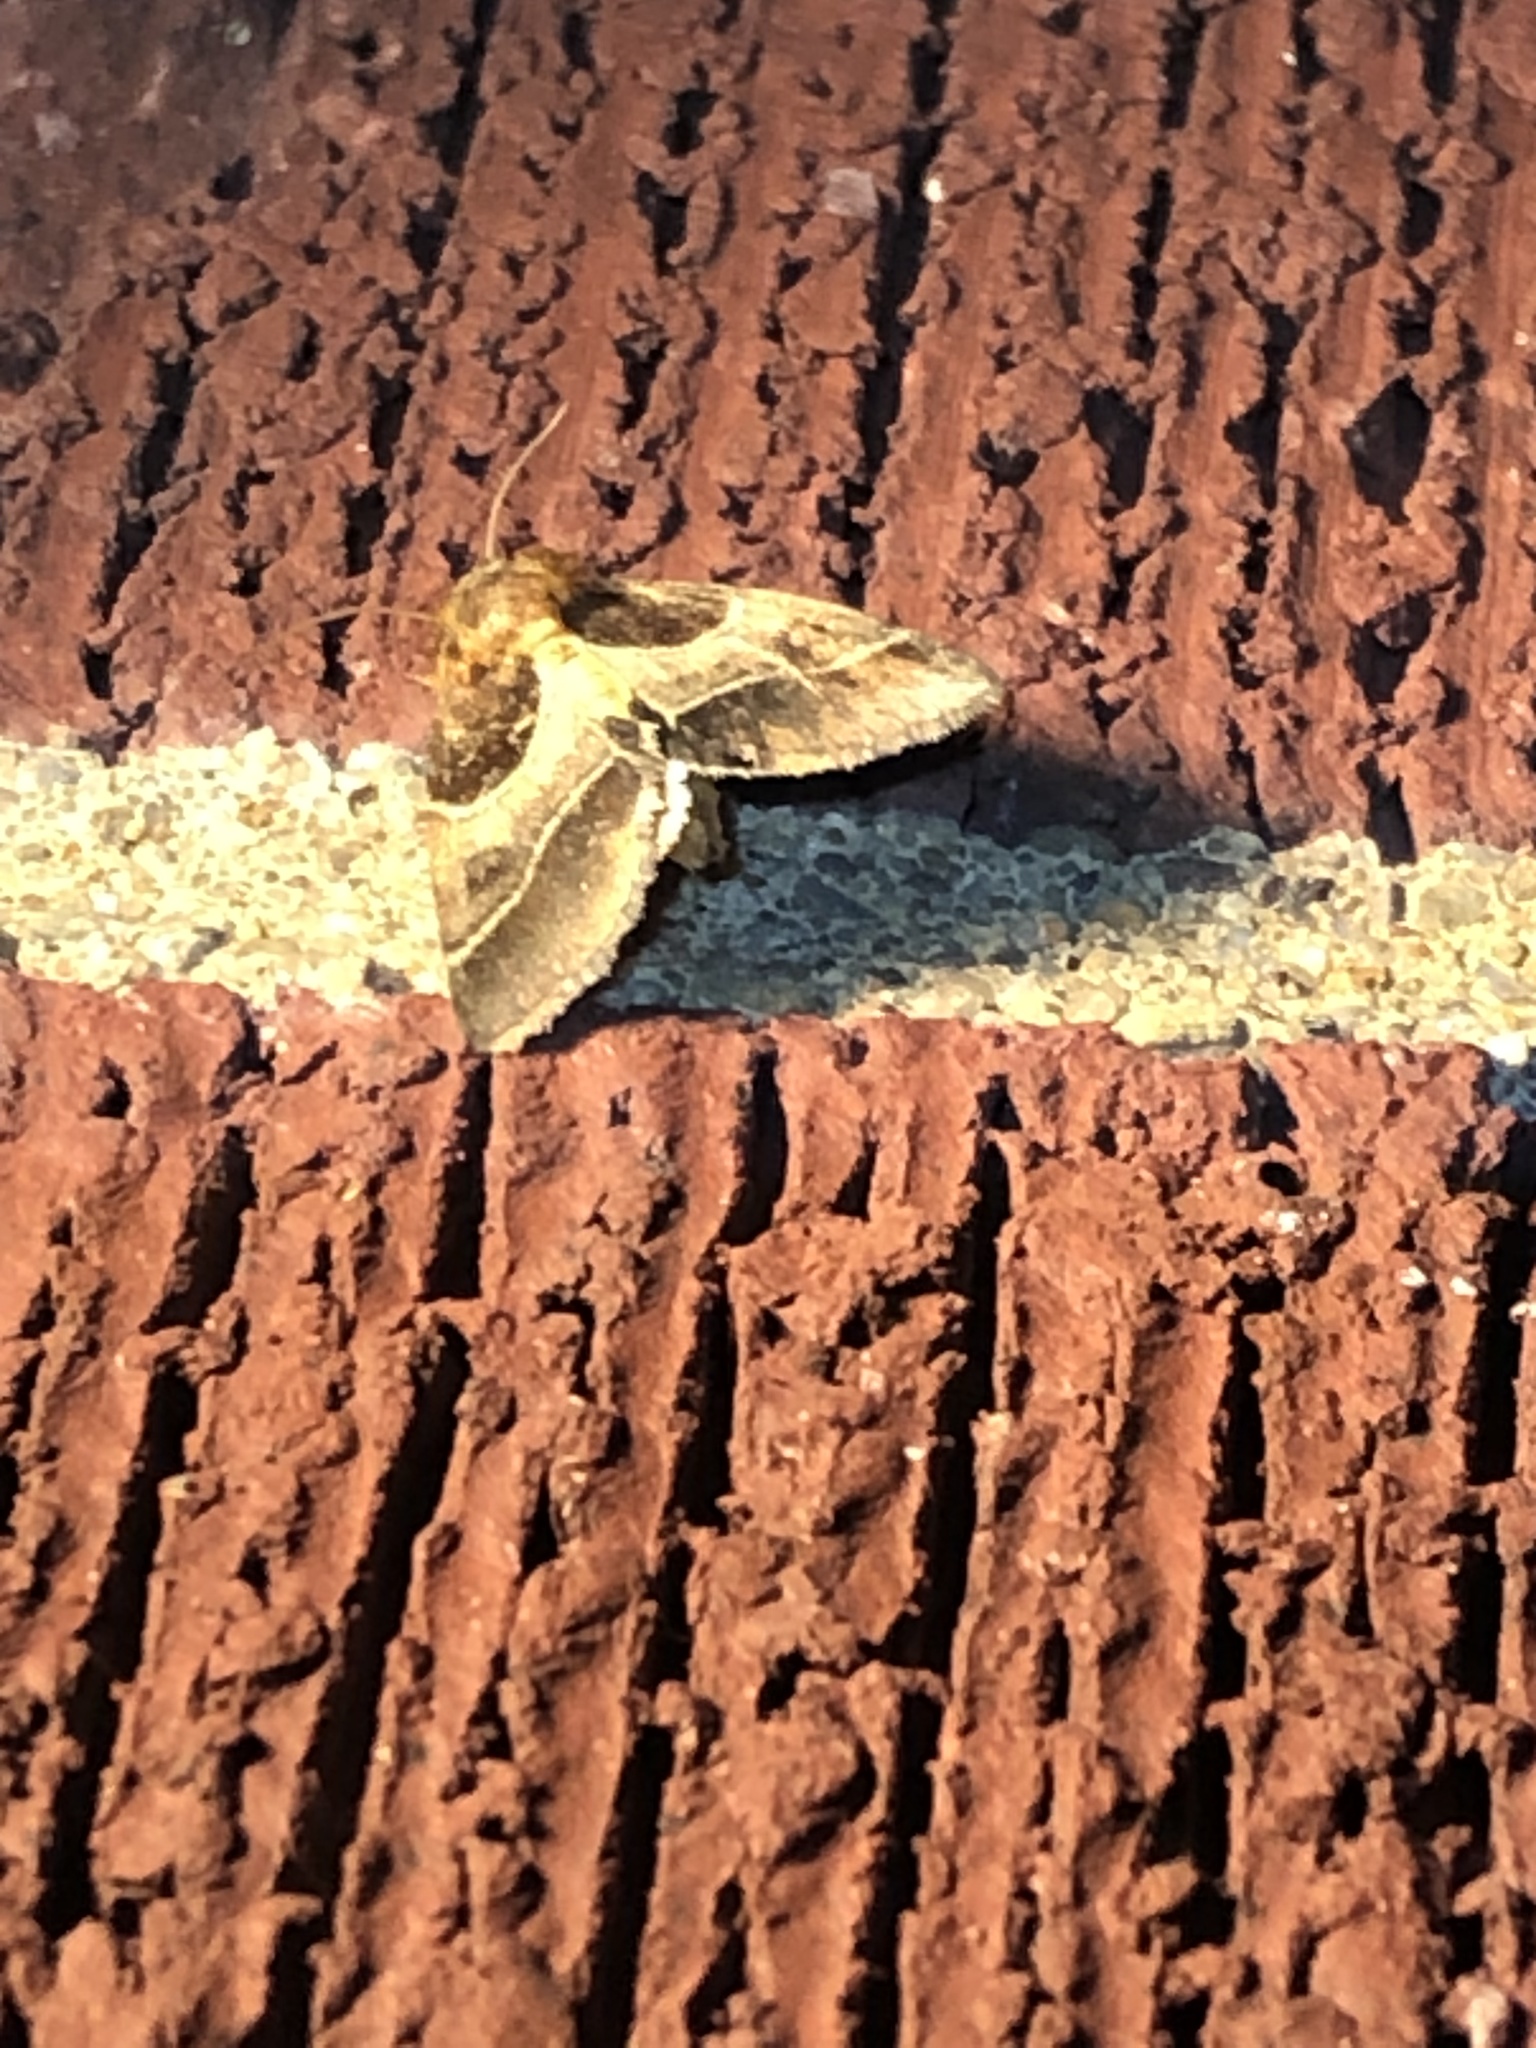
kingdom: Animalia
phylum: Arthropoda
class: Insecta
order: Lepidoptera
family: Noctuidae
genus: Schinia
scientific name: Schinia arcigera
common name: Arcigera flower moth
